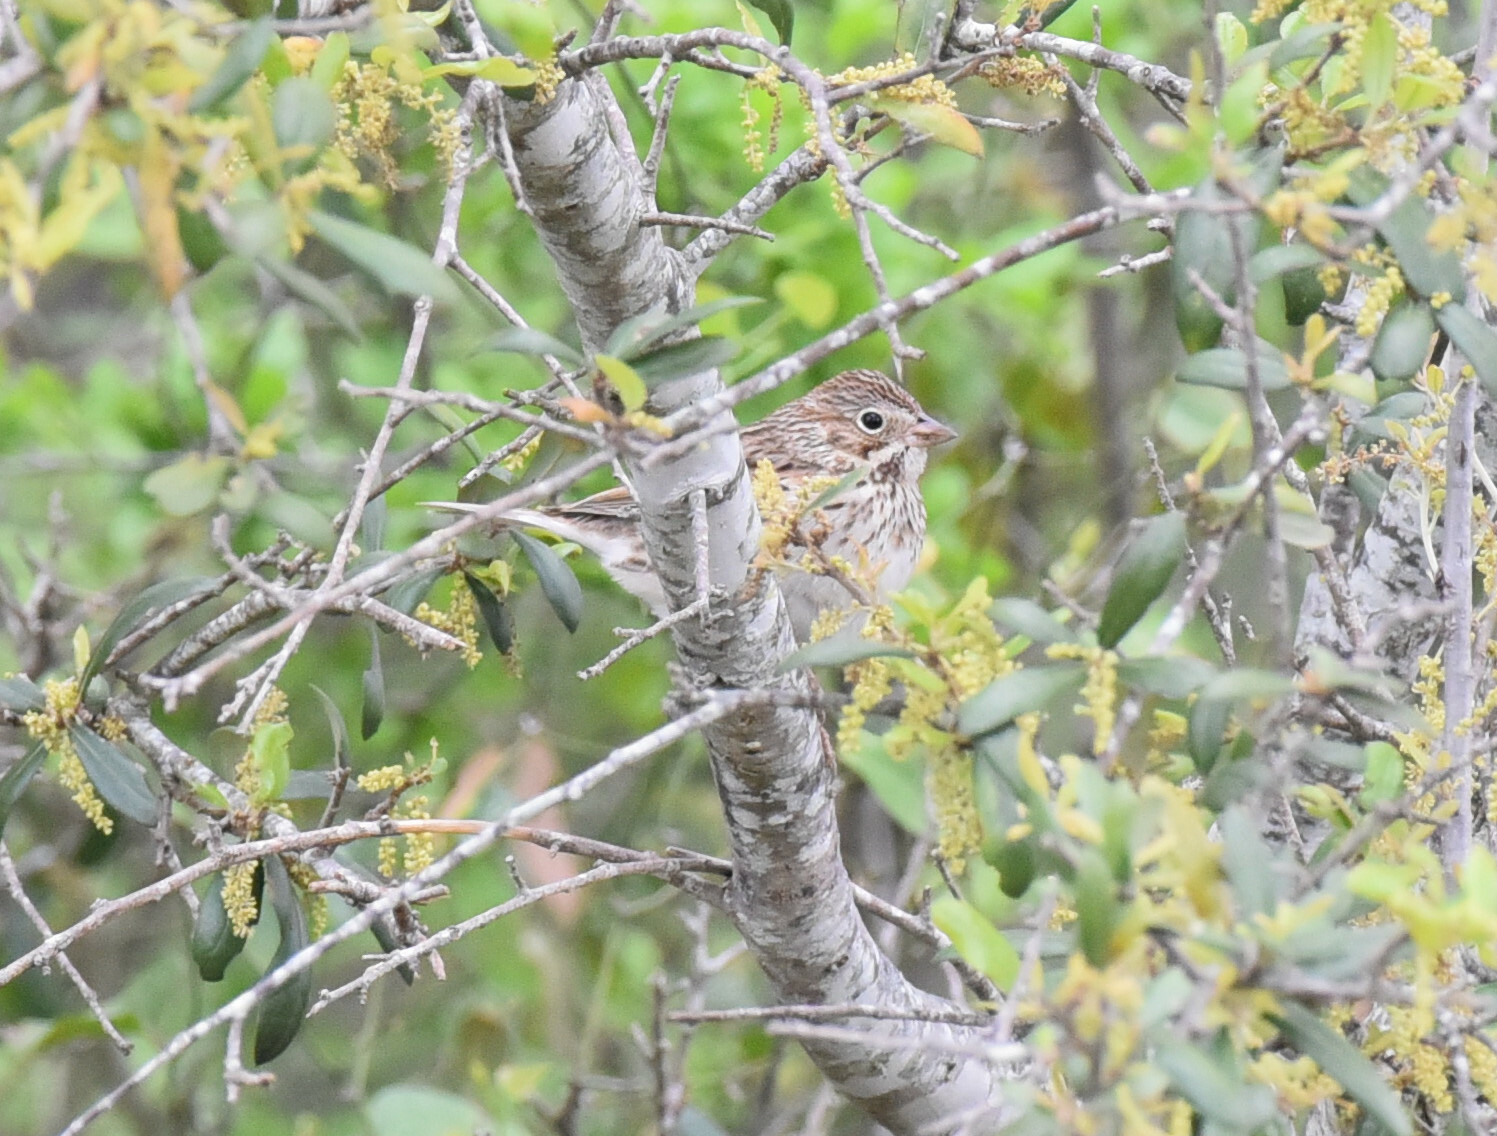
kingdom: Animalia
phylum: Chordata
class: Aves
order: Passeriformes
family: Passerellidae
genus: Pooecetes
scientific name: Pooecetes gramineus
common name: Vesper sparrow
